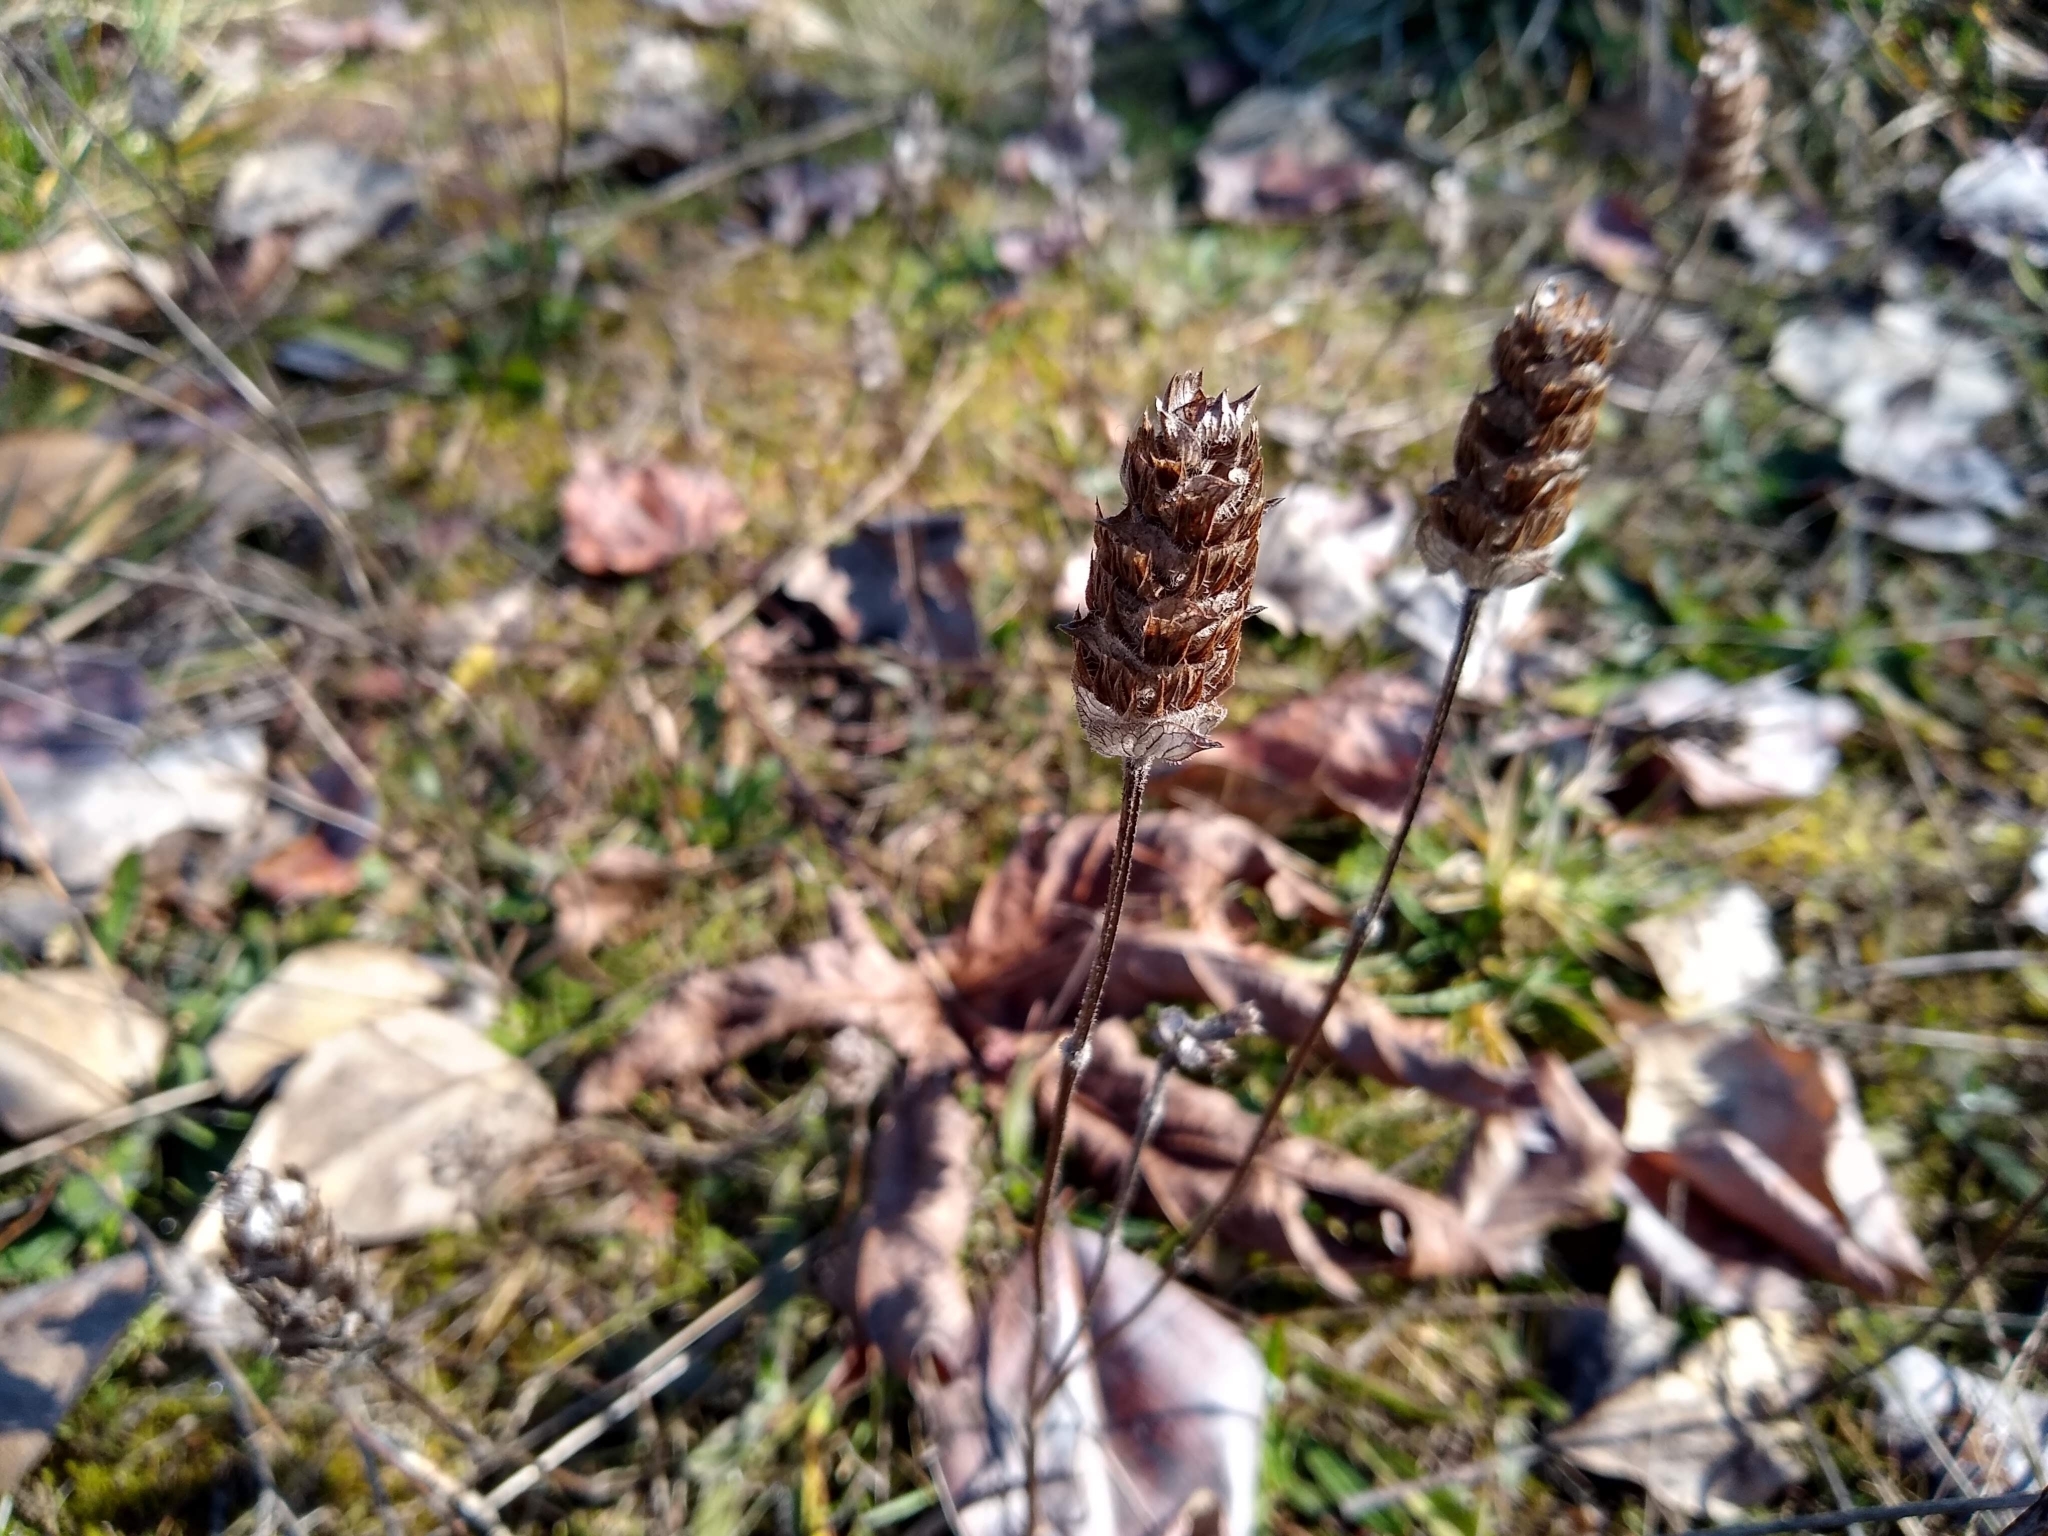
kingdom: Plantae
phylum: Tracheophyta
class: Magnoliopsida
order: Lamiales
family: Lamiaceae
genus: Prunella
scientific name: Prunella vulgaris
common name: Heal-all
